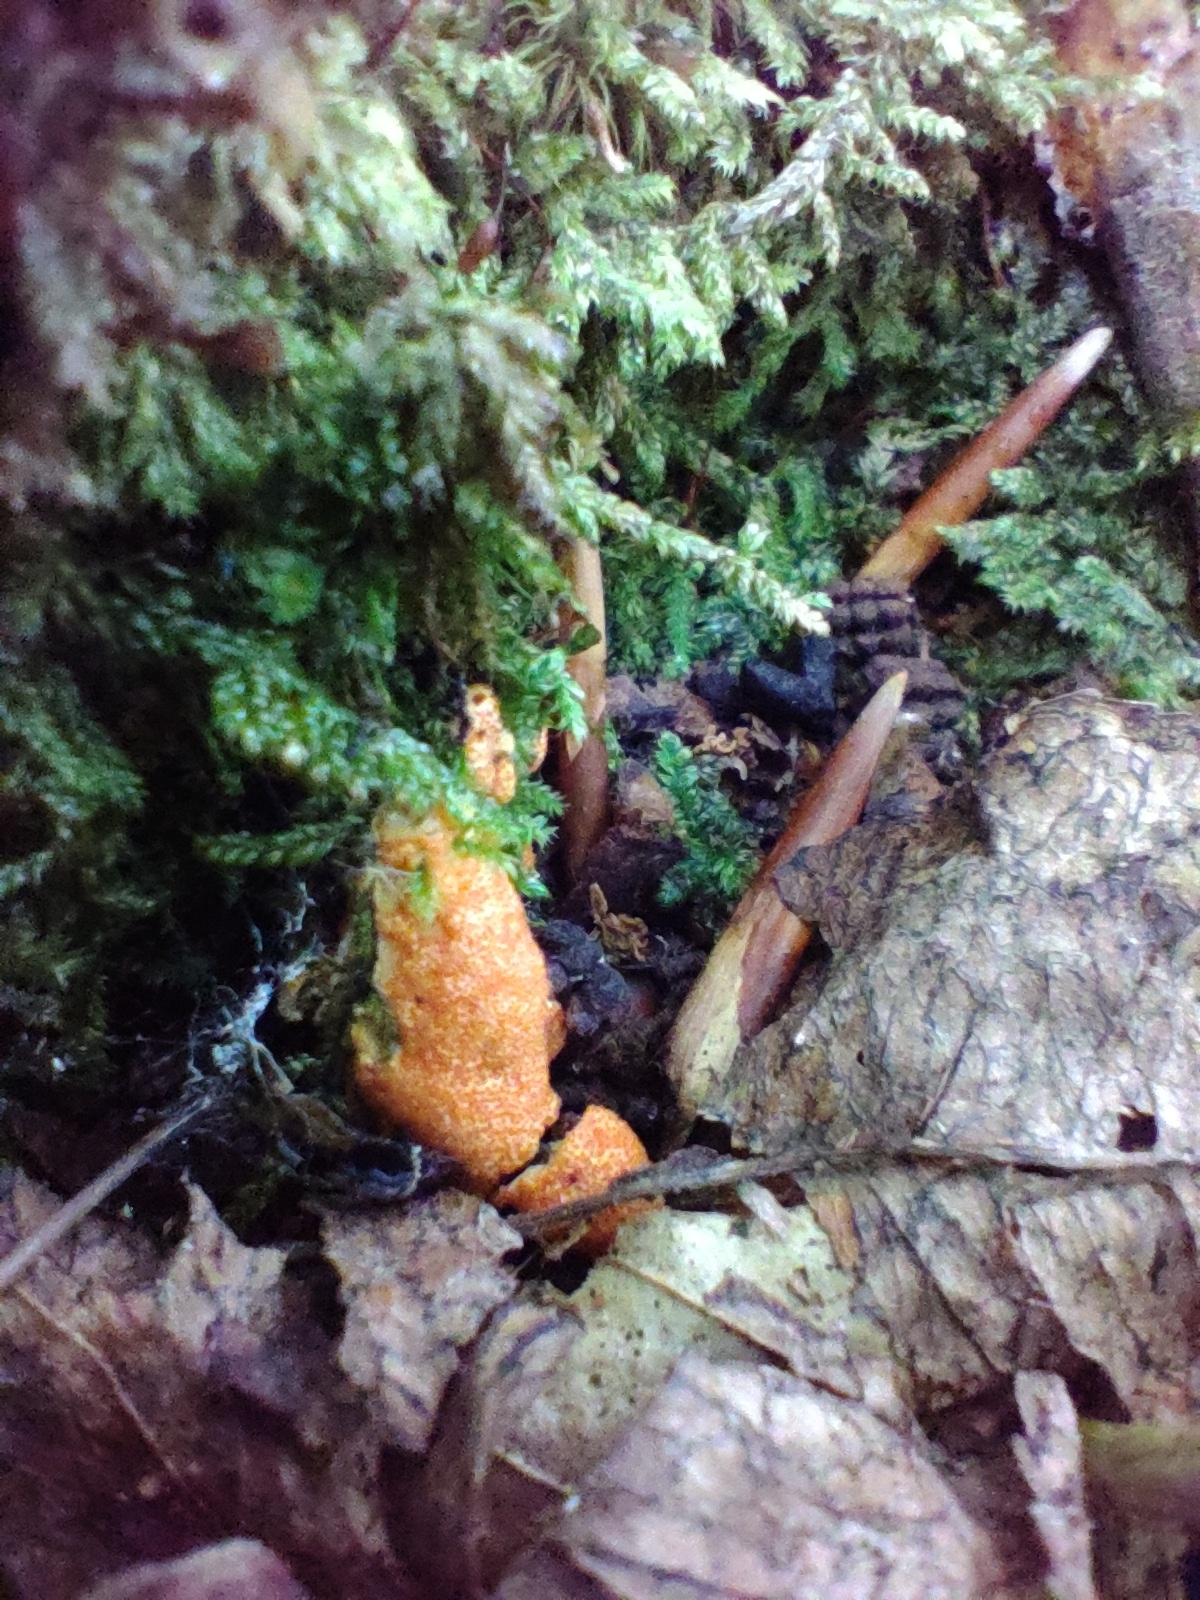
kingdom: Fungi
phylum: Ascomycota
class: Sordariomycetes
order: Hypocreales
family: Hypocreaceae
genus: Hypomyces
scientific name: Hypomyces armeniacus
